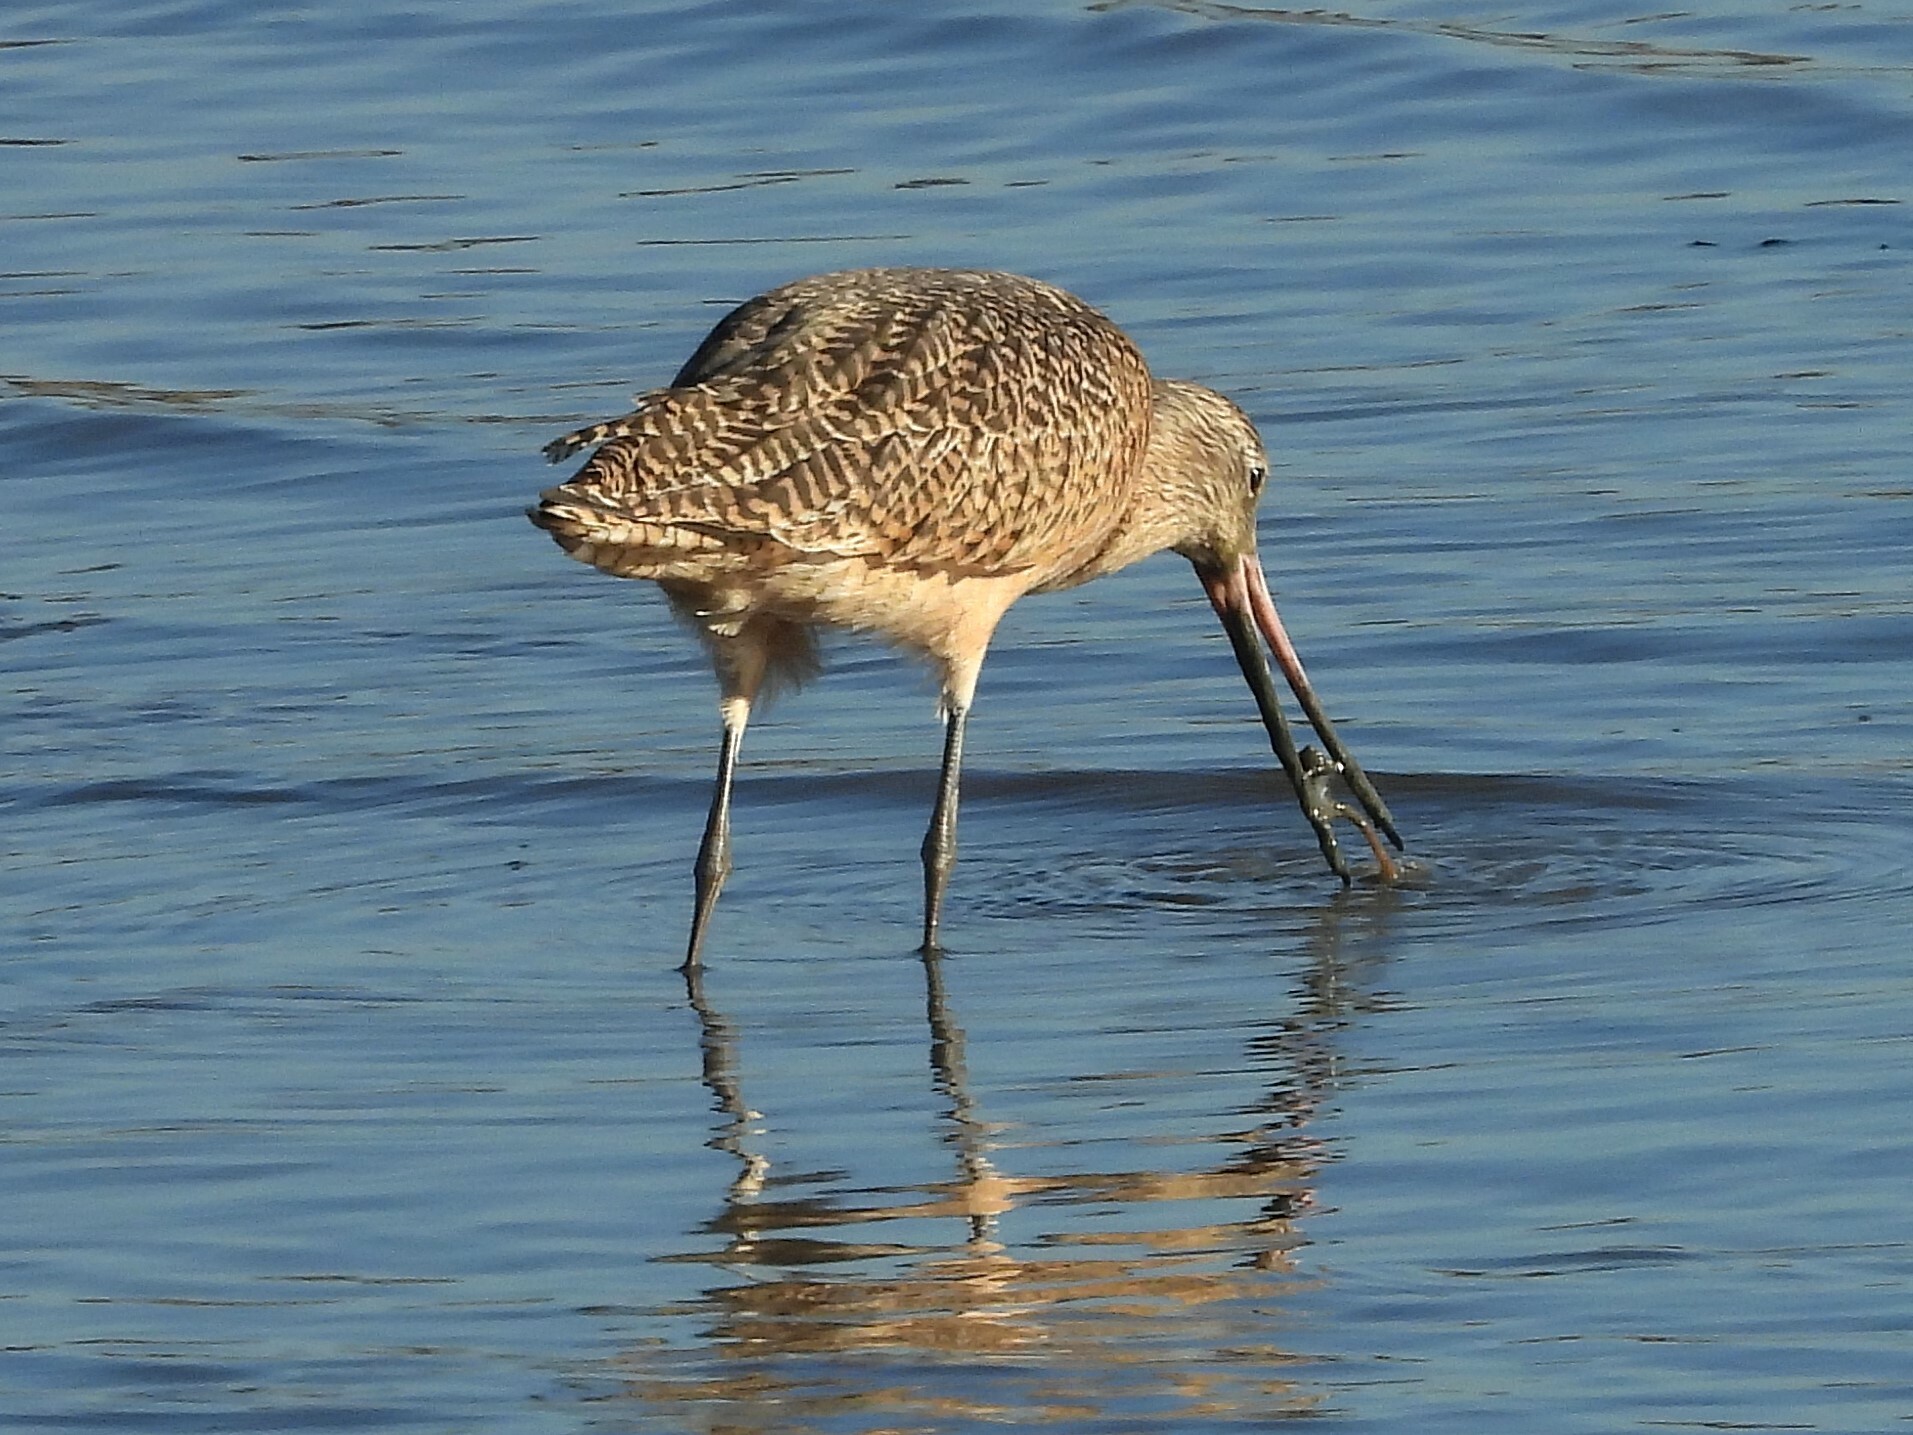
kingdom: Animalia
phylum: Chordata
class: Aves
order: Charadriiformes
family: Scolopacidae
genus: Limosa
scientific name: Limosa fedoa
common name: Marbled godwit
